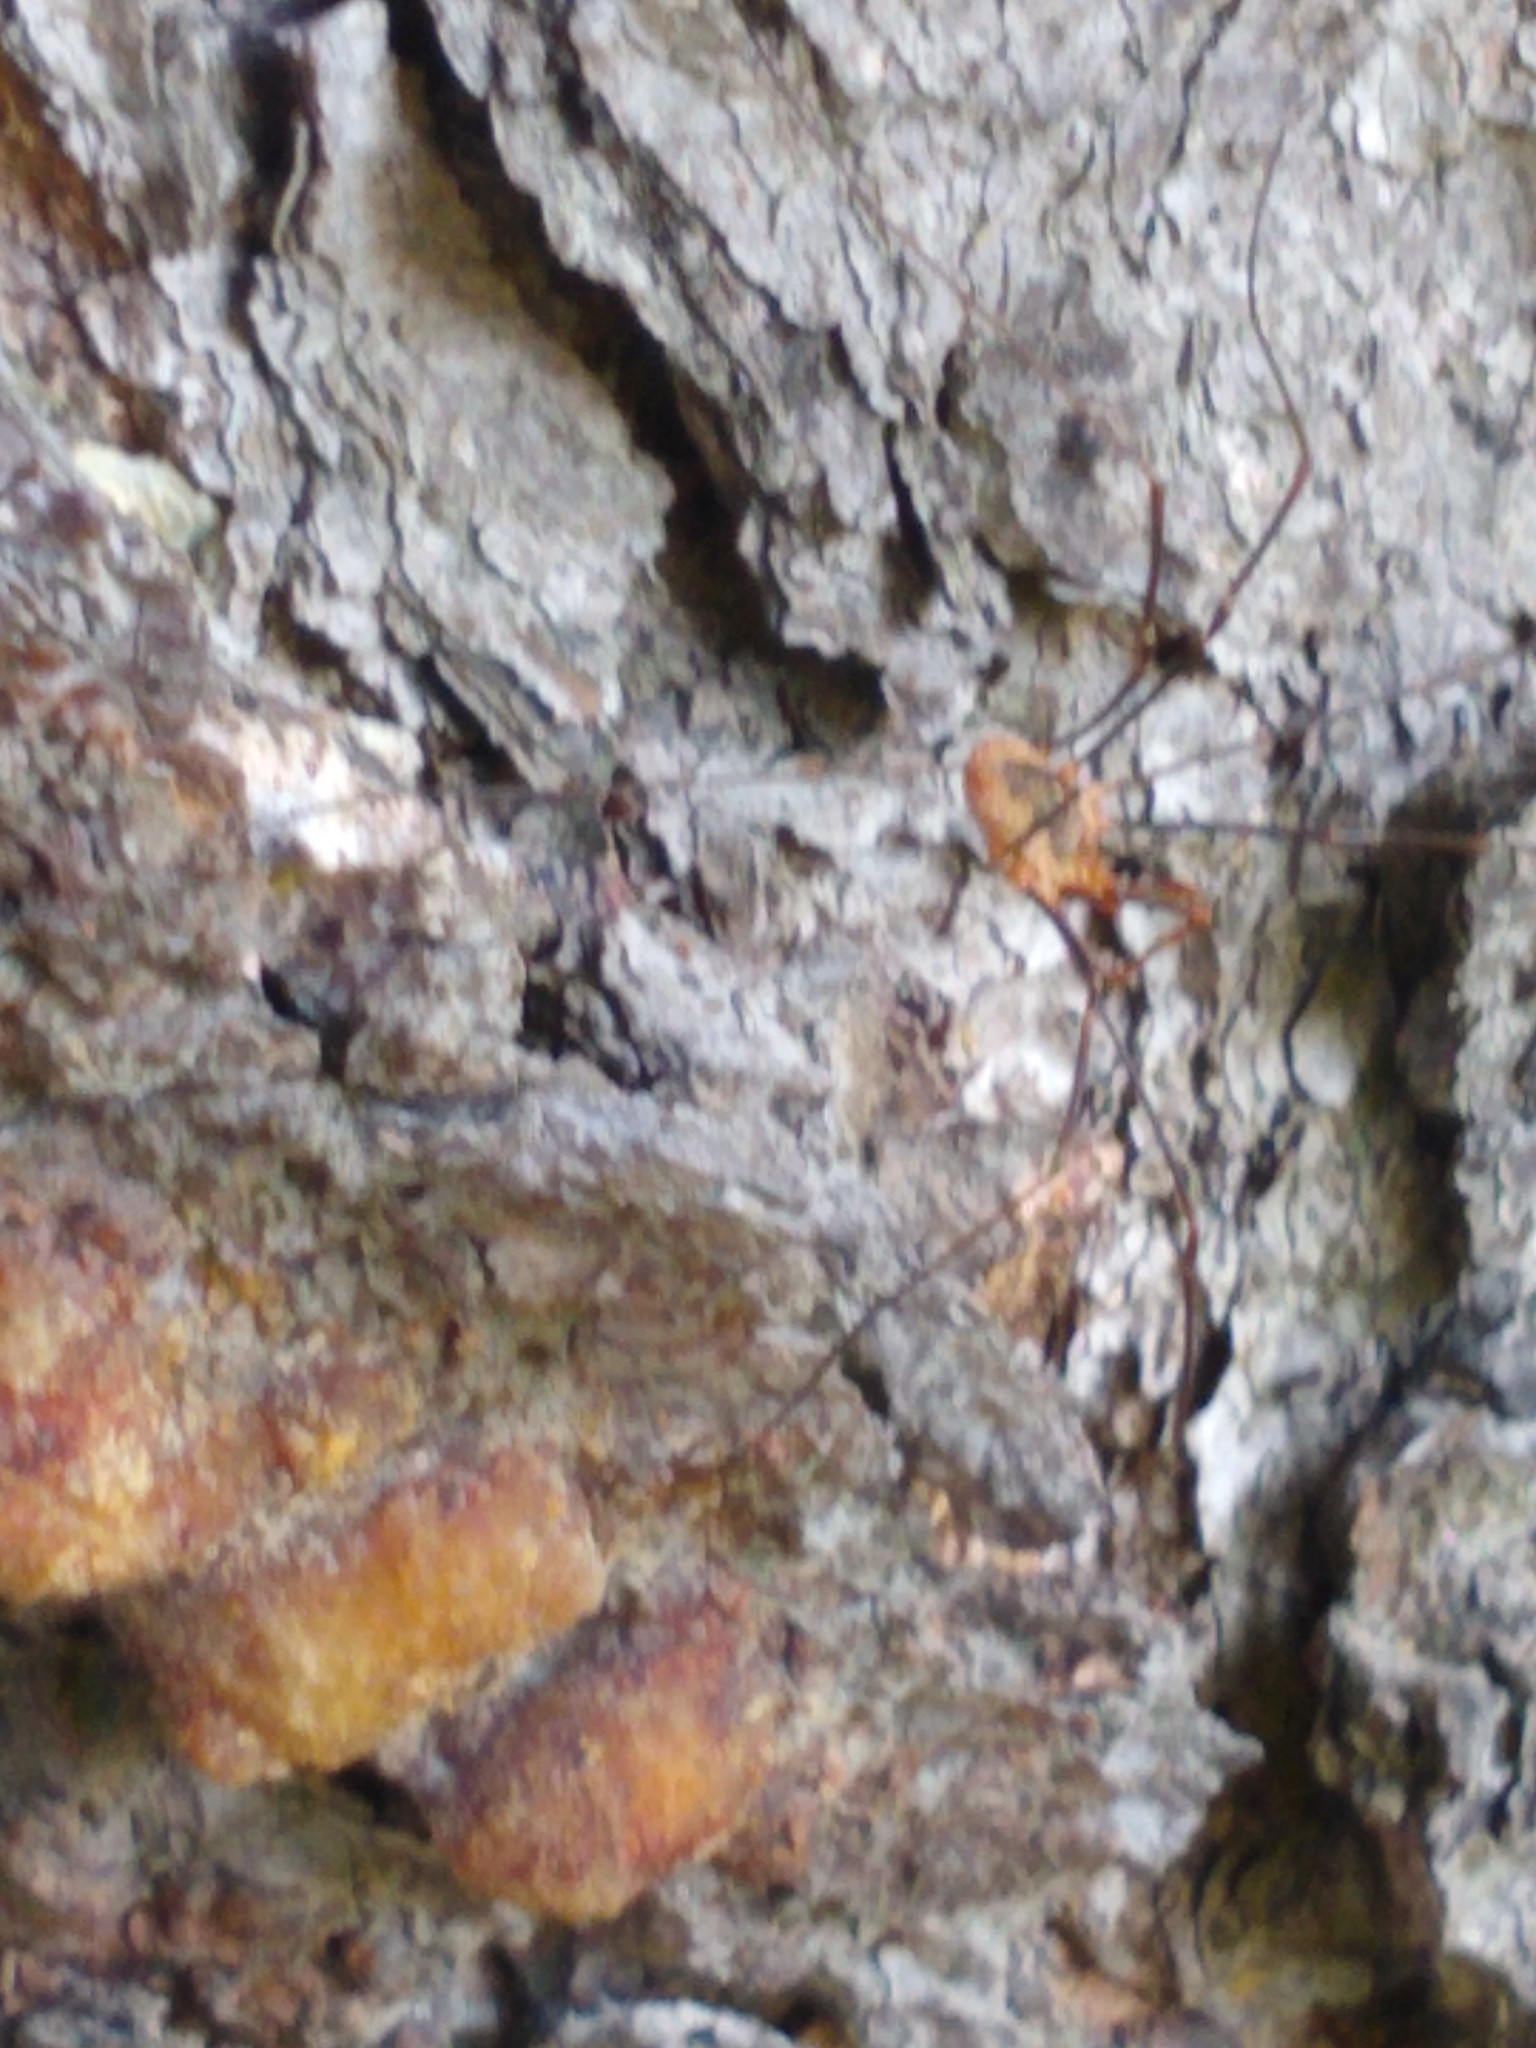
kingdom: Animalia
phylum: Arthropoda
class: Arachnida
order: Opiliones
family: Phalangiidae
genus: Phalangium
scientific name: Phalangium opilio
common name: Daddy longleg
